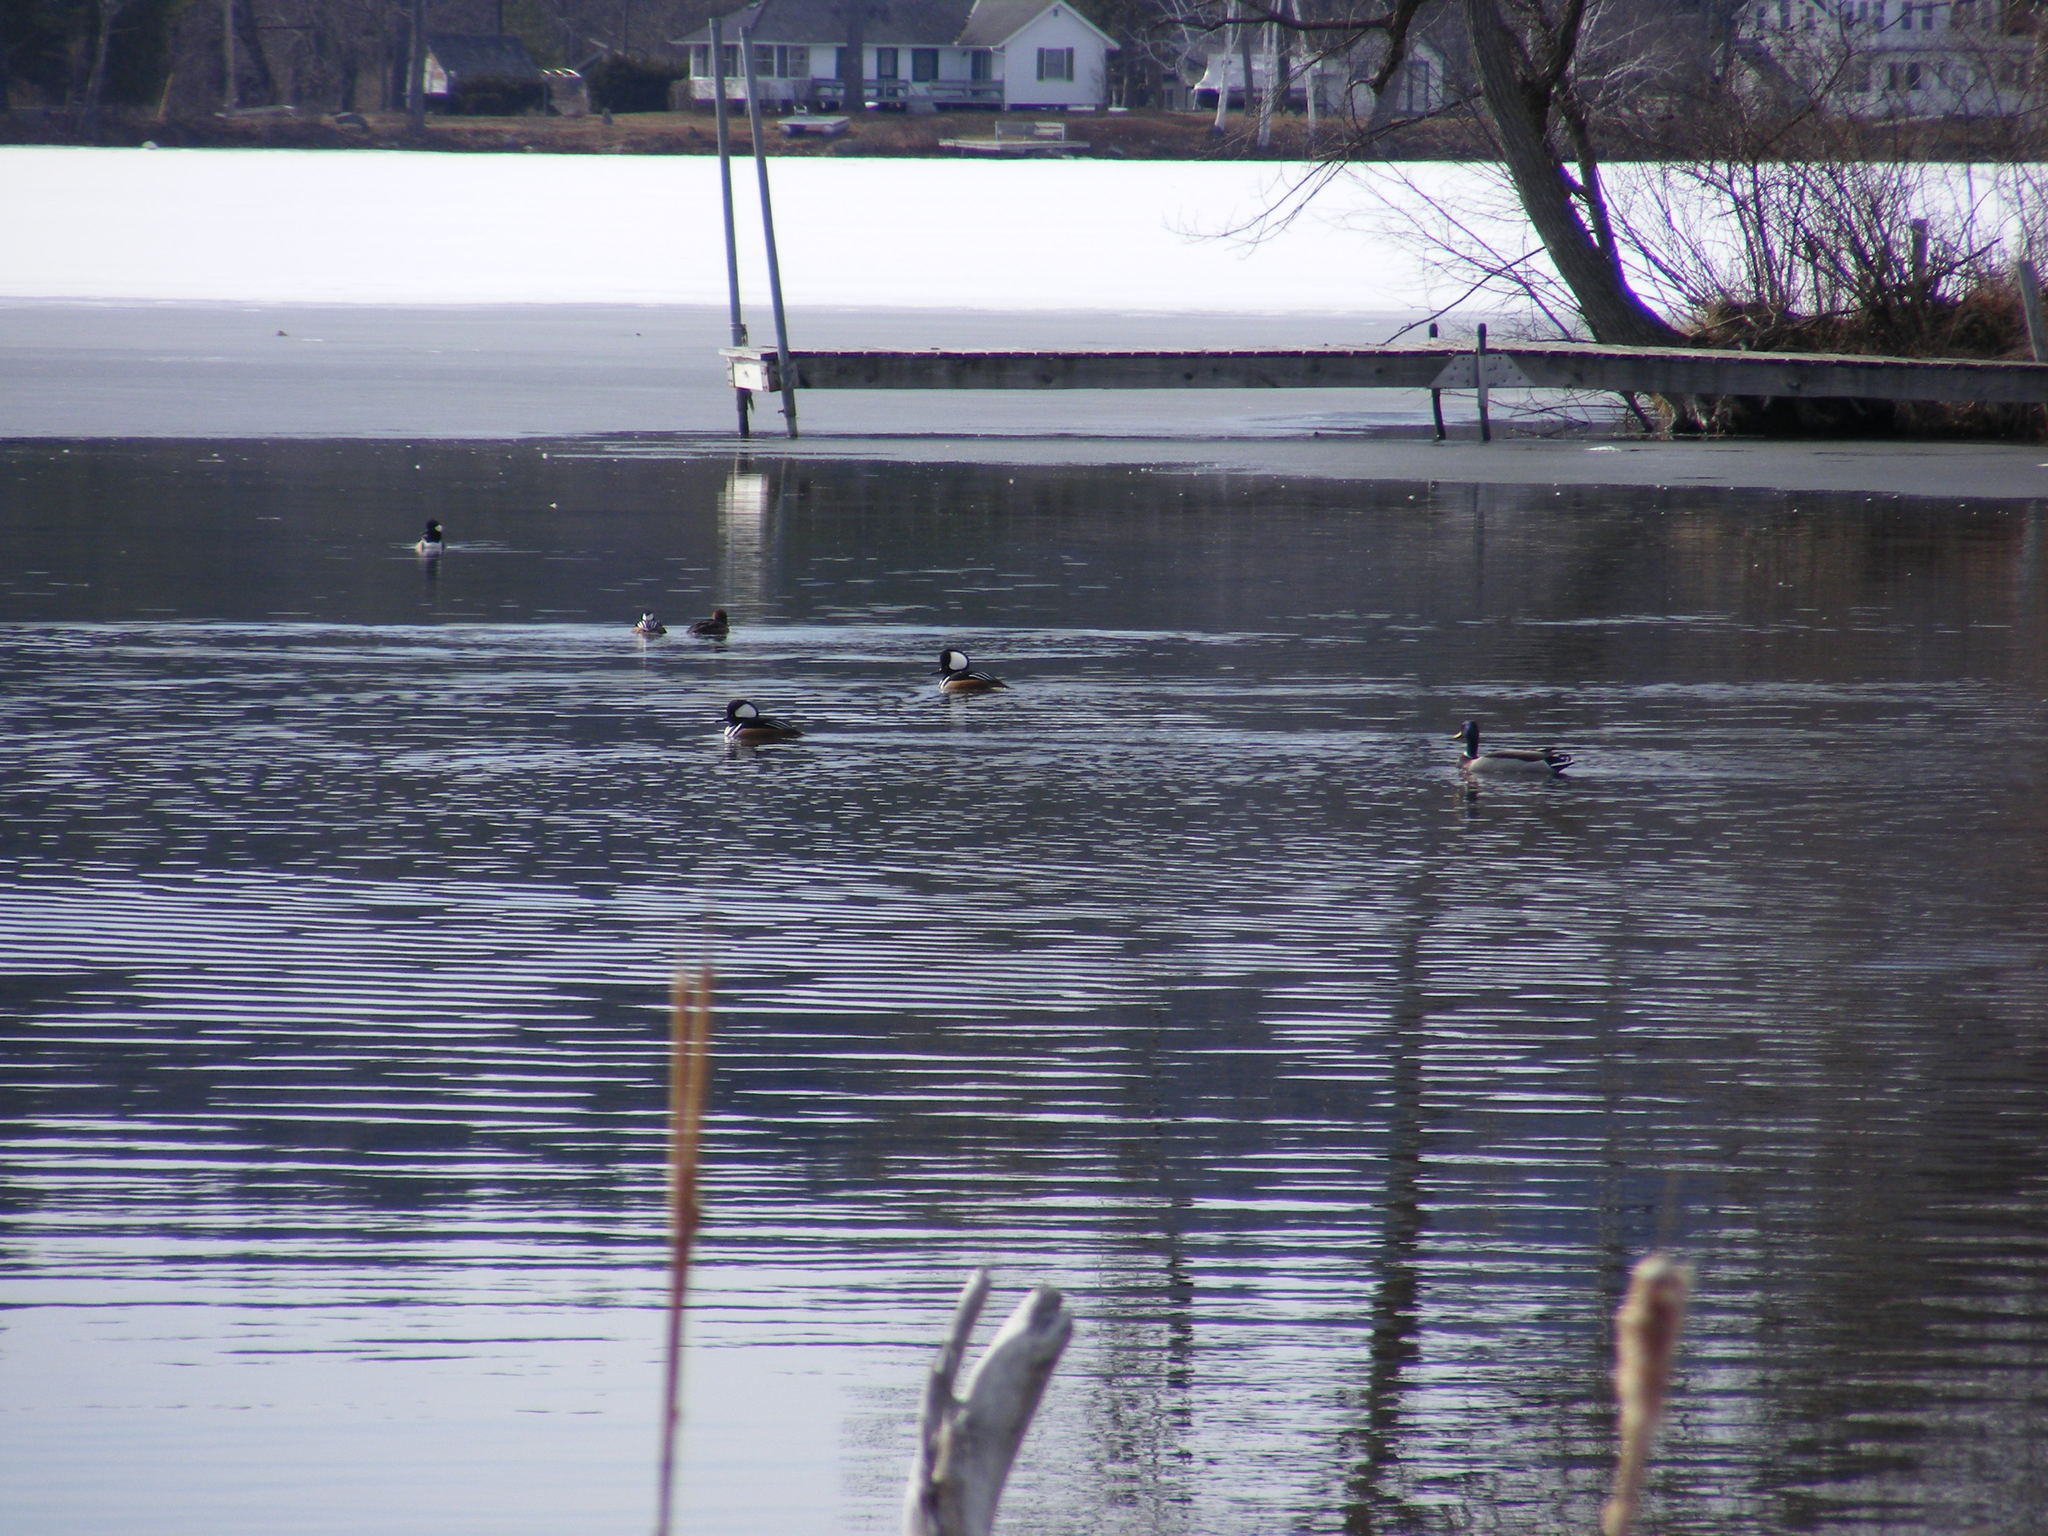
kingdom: Animalia
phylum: Chordata
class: Aves
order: Anseriformes
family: Anatidae
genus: Lophodytes
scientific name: Lophodytes cucullatus
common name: Hooded merganser
